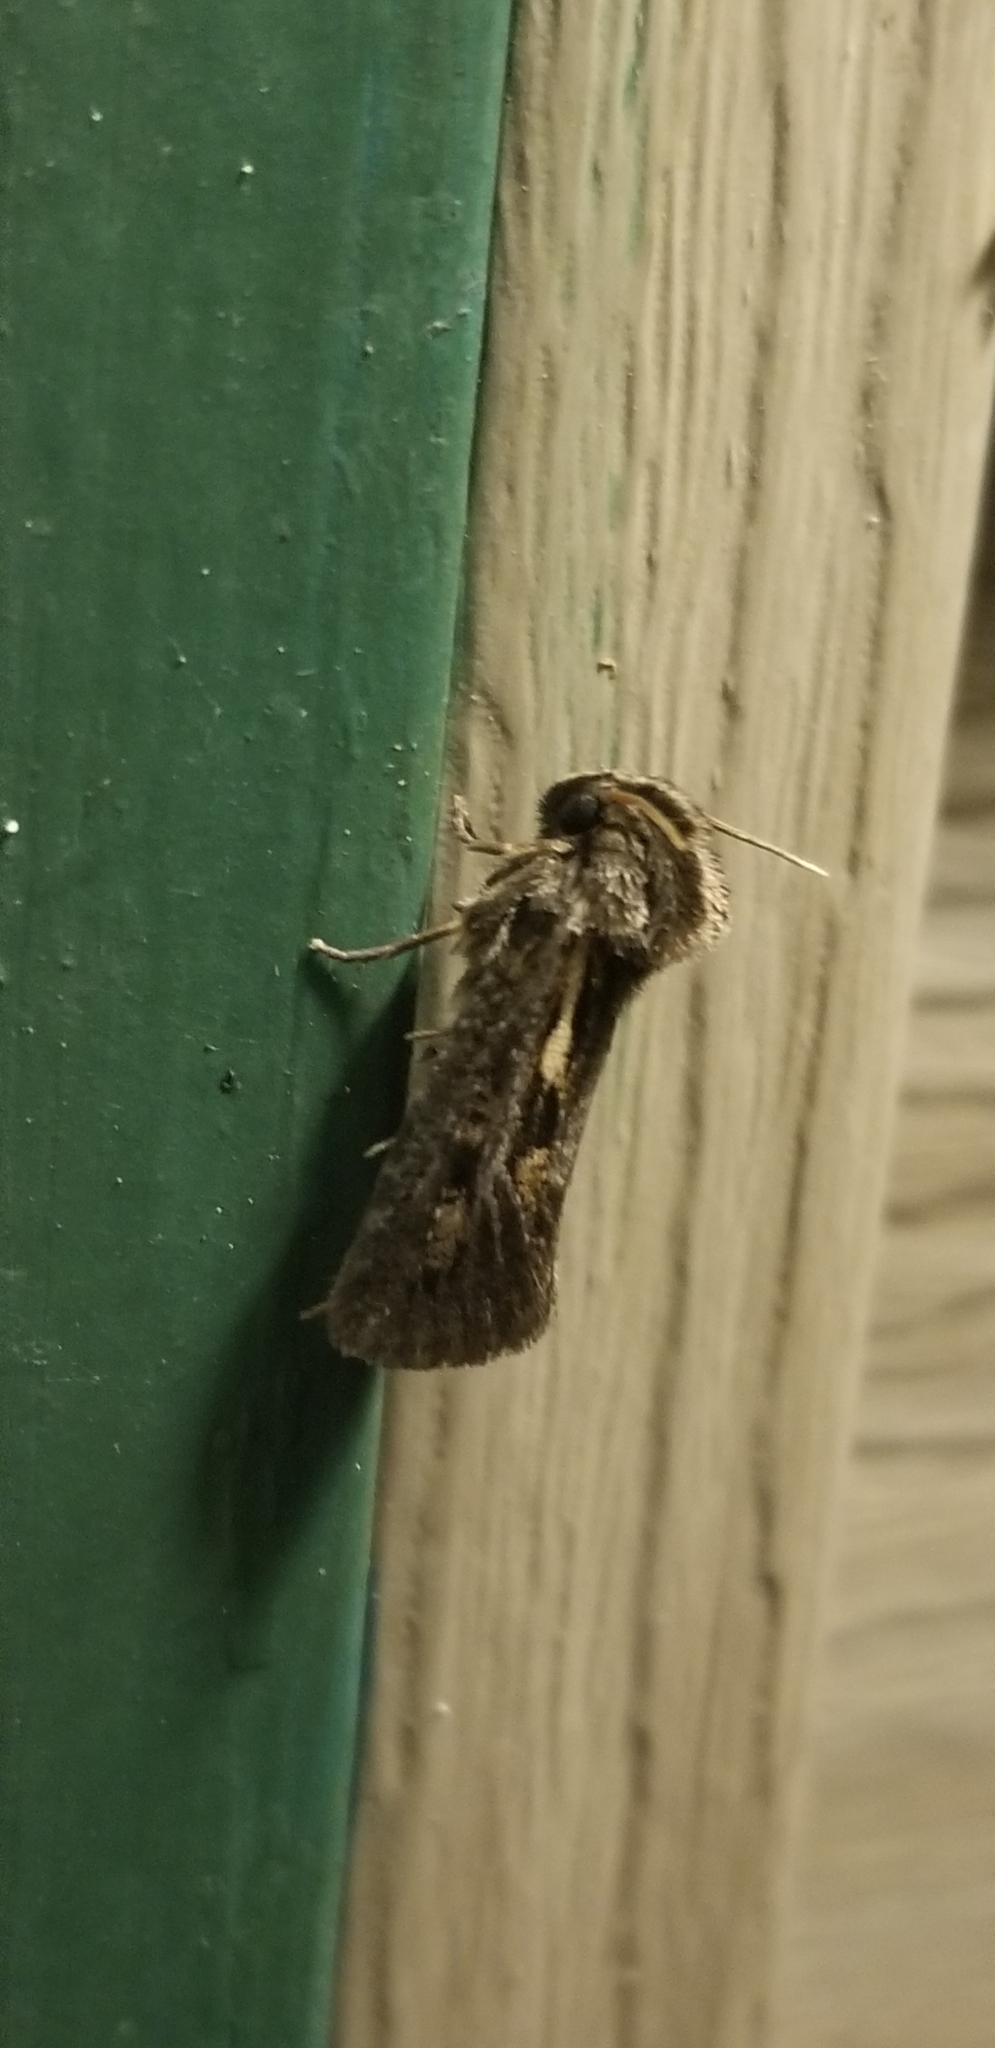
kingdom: Animalia
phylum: Arthropoda
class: Insecta
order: Lepidoptera
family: Tineidae
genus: Acrolophus
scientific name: Acrolophus popeanella
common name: Clemens' grass tubeworm moth
